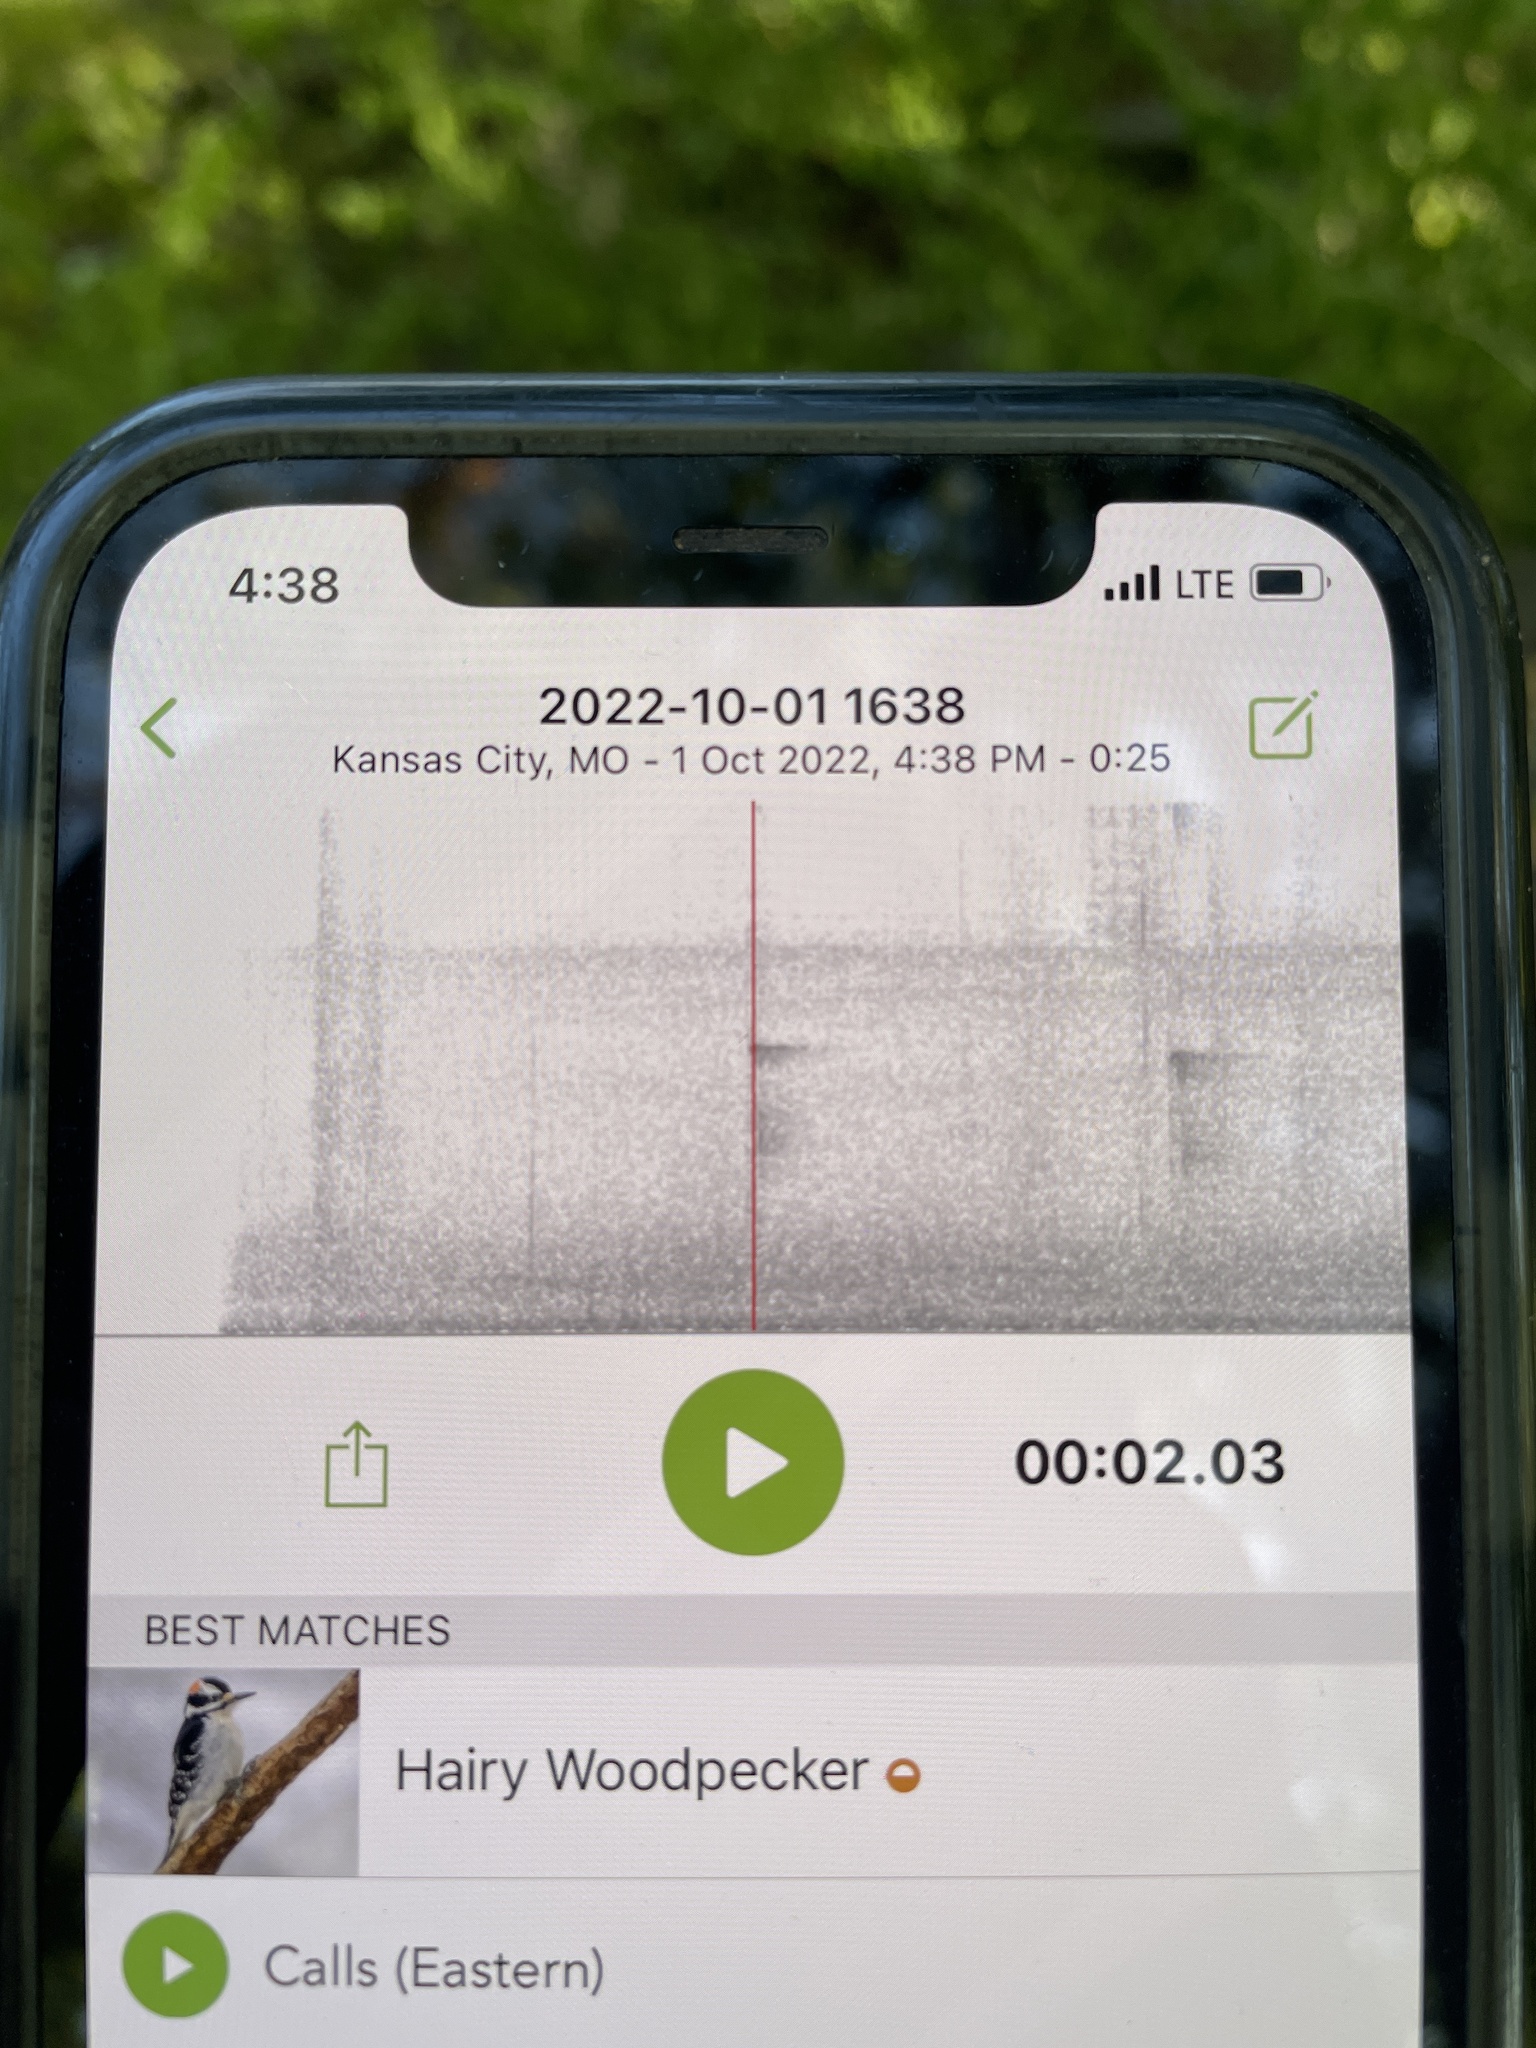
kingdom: Animalia
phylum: Chordata
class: Aves
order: Piciformes
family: Picidae
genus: Leuconotopicus
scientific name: Leuconotopicus villosus
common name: Hairy woodpecker
